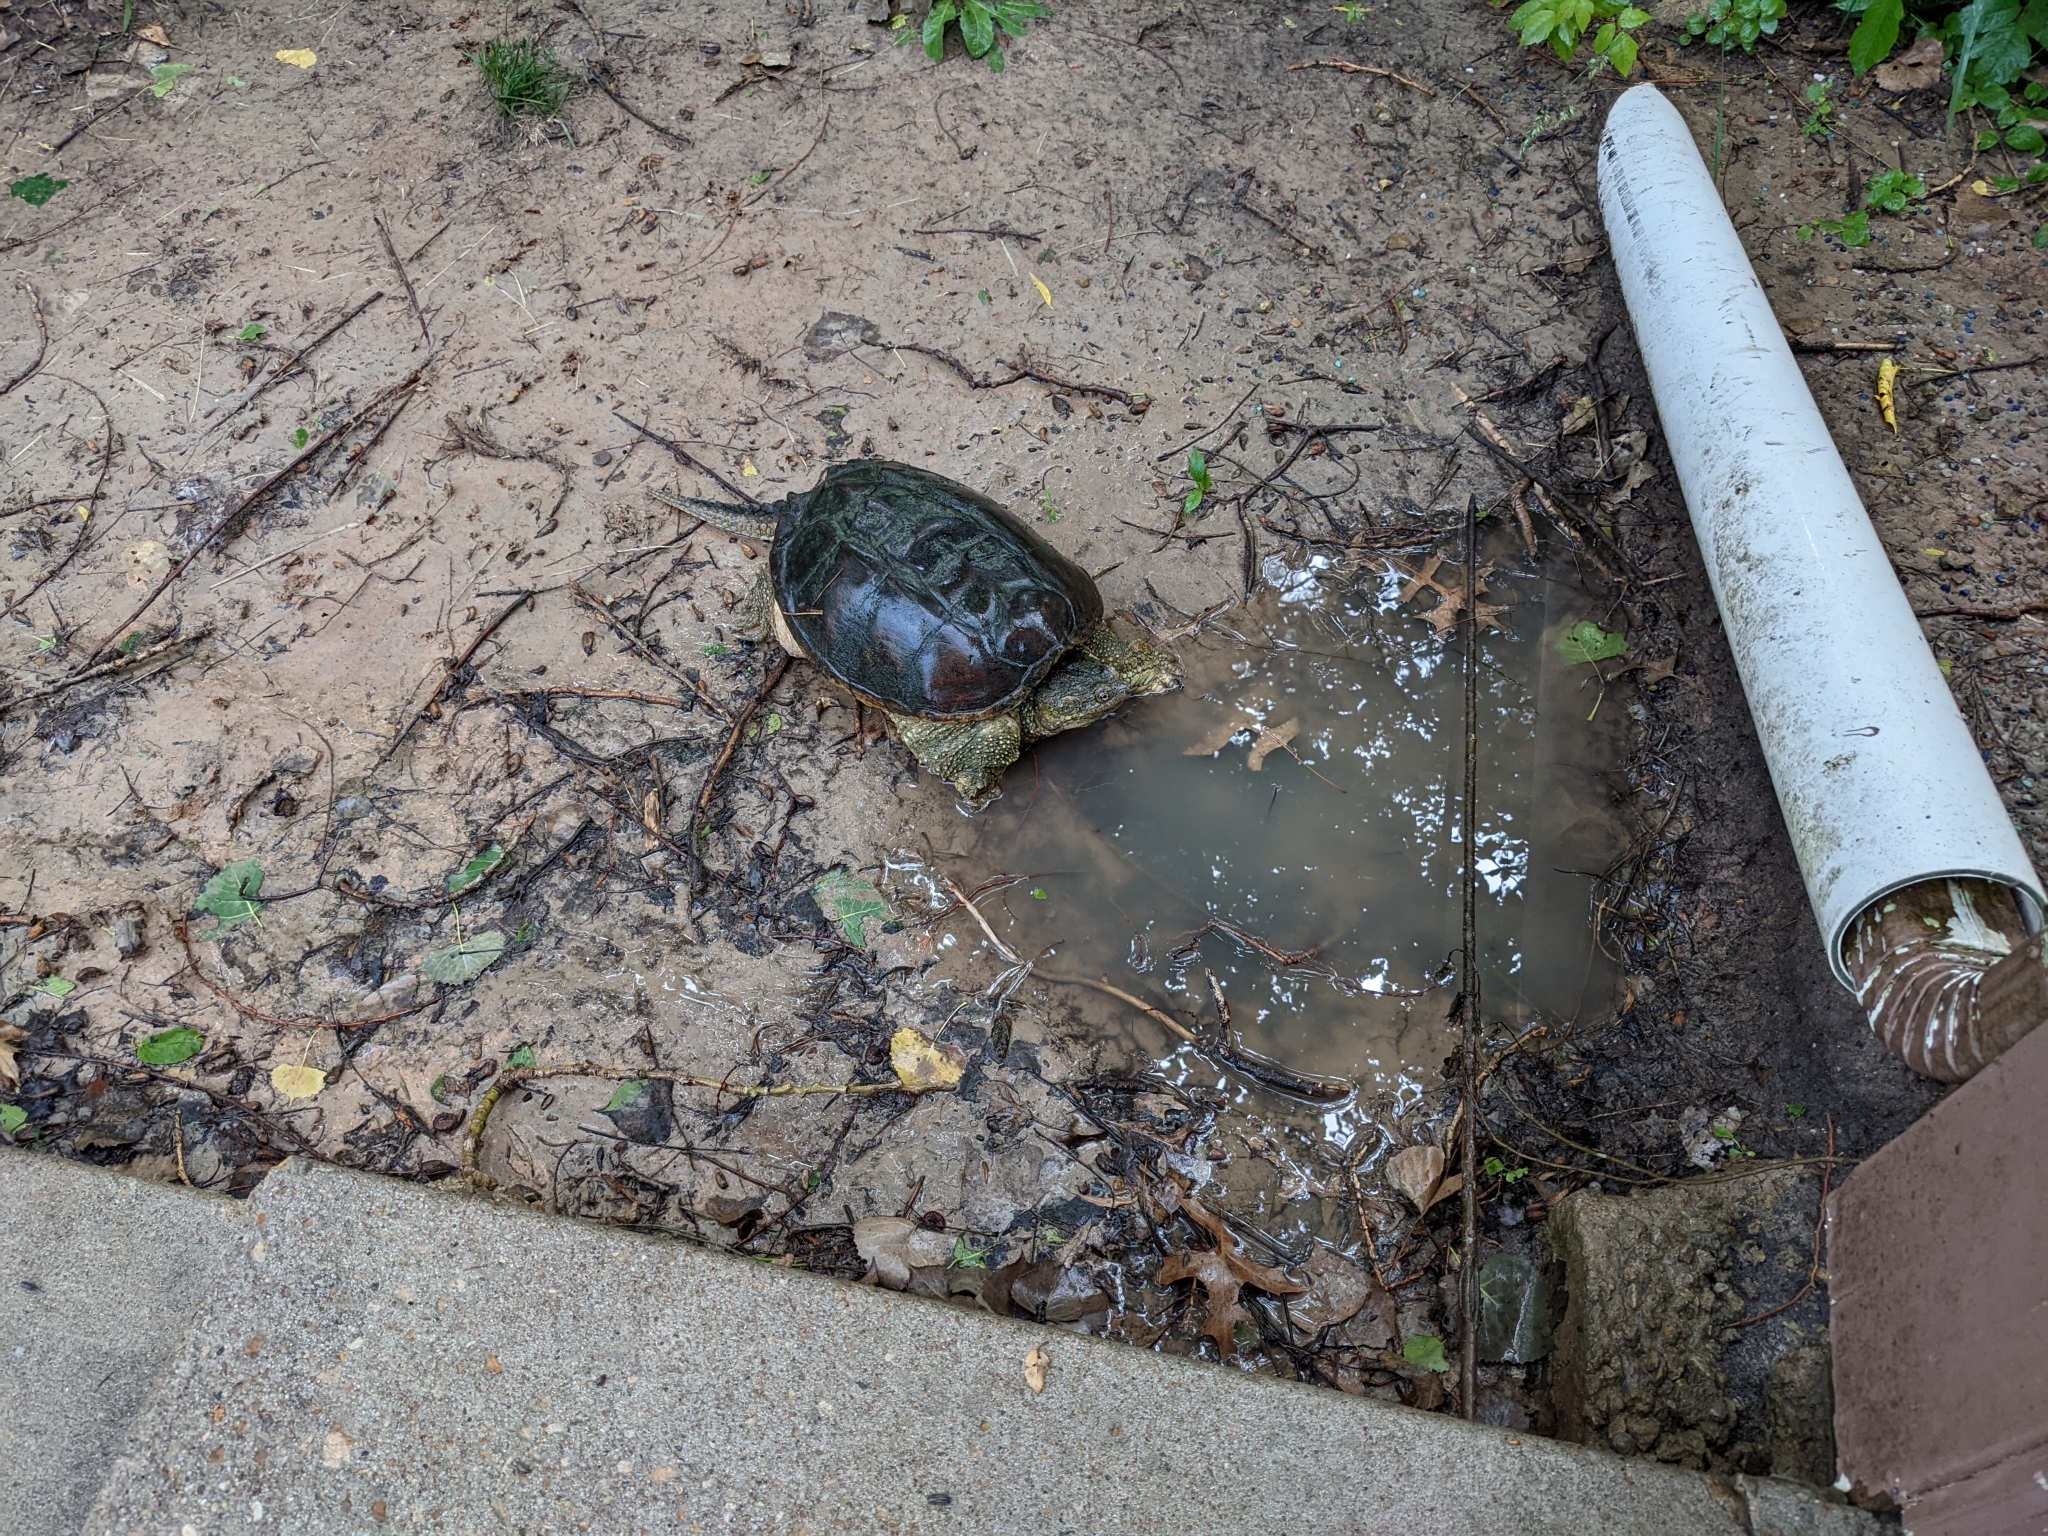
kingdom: Animalia
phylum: Chordata
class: Testudines
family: Chelydridae
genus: Chelydra
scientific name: Chelydra serpentina
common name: Common snapping turtle
